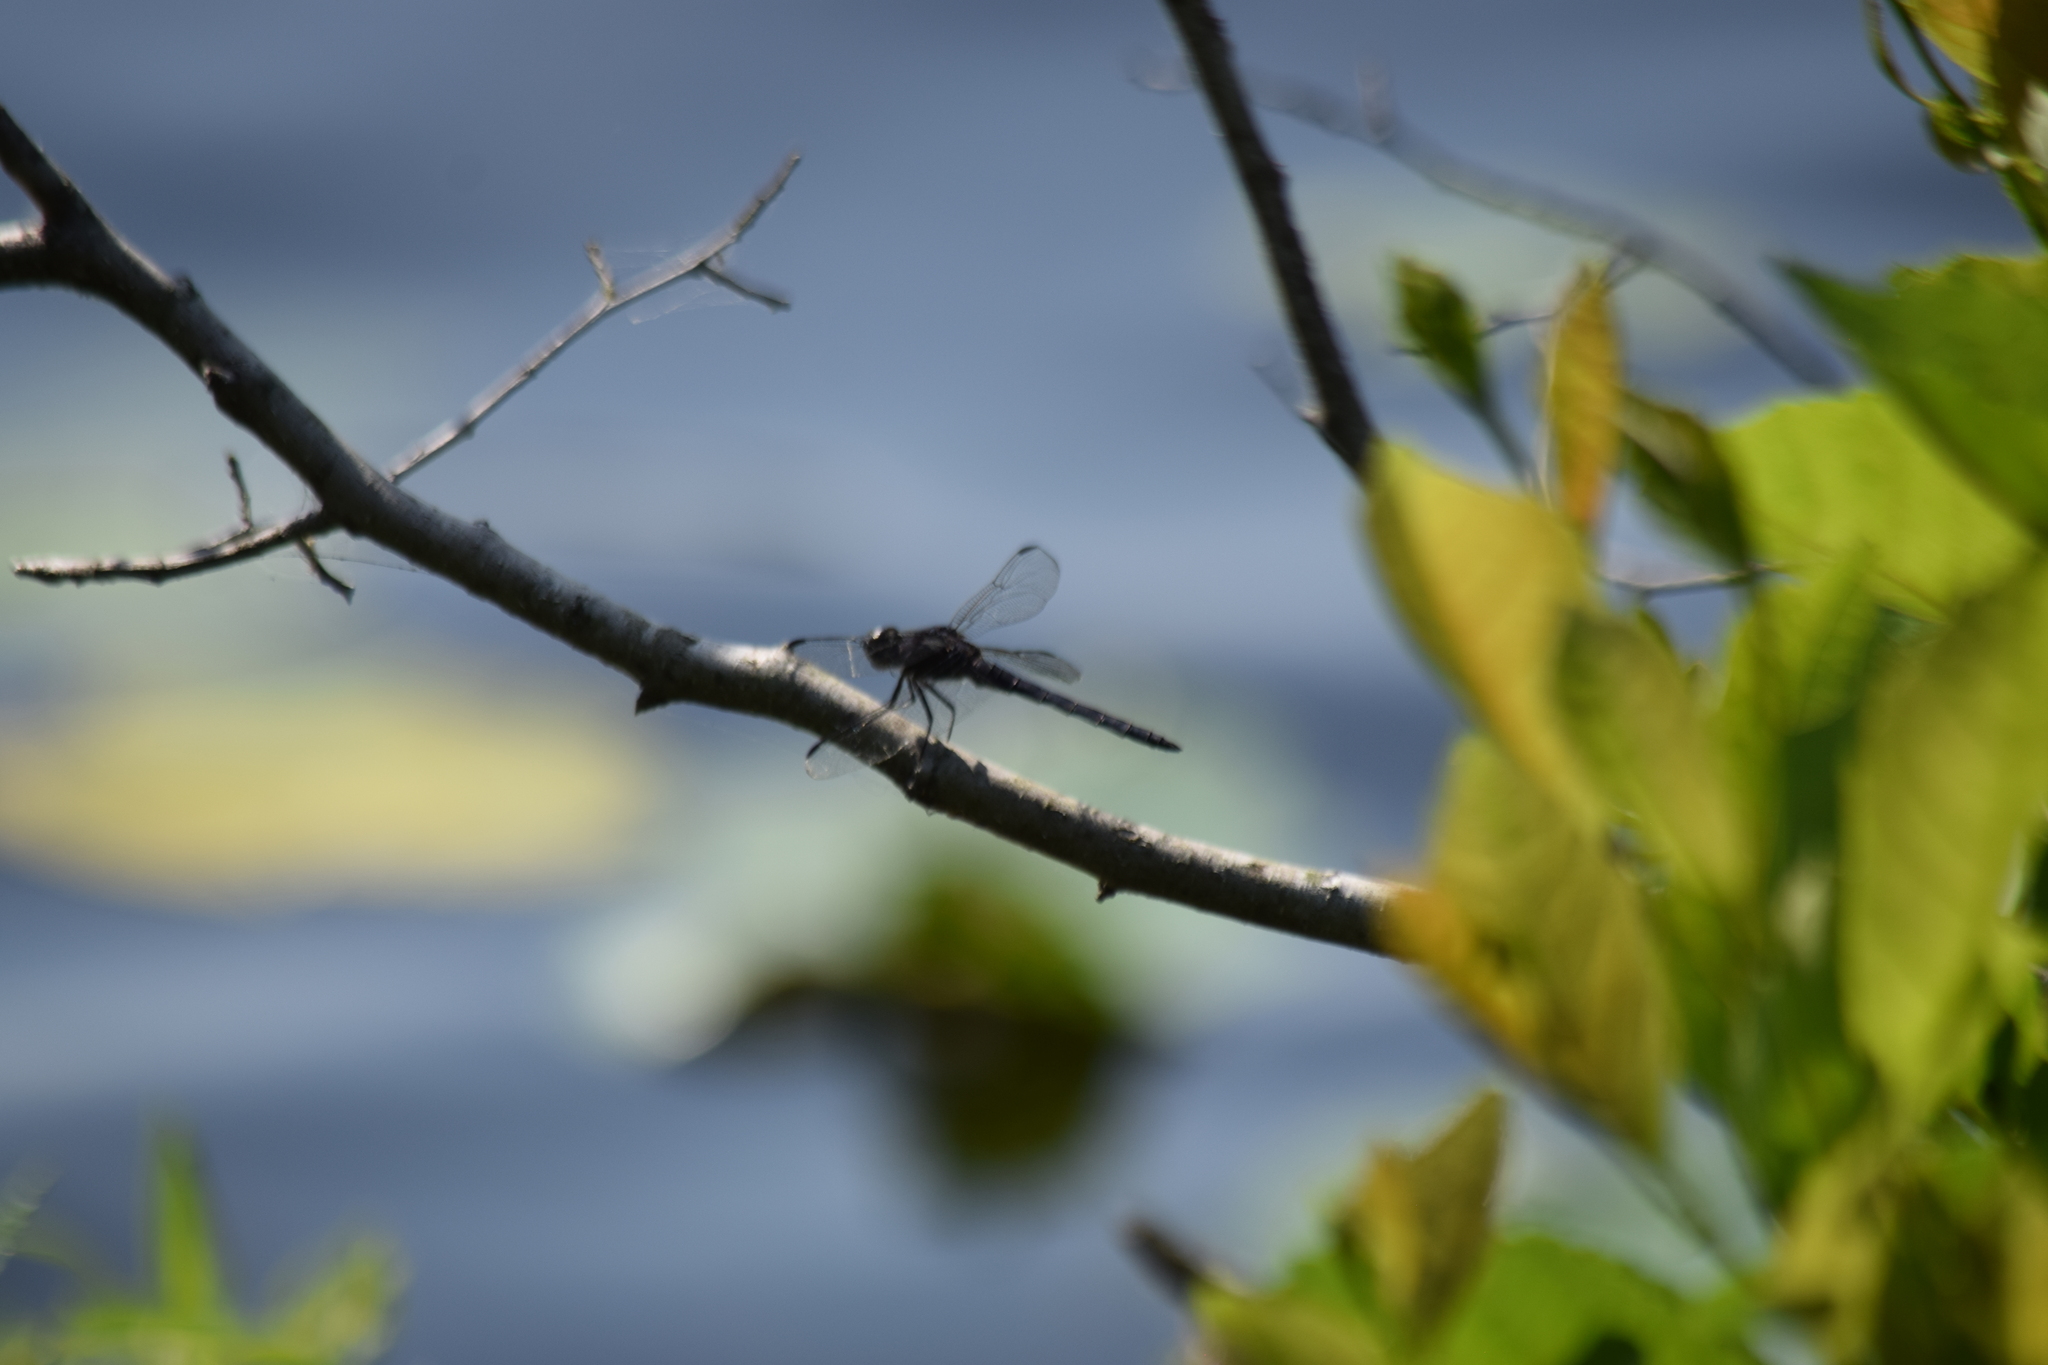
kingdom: Animalia
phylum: Arthropoda
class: Insecta
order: Odonata
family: Libellulidae
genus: Libellula
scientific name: Libellula incesta
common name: Slaty skimmer
